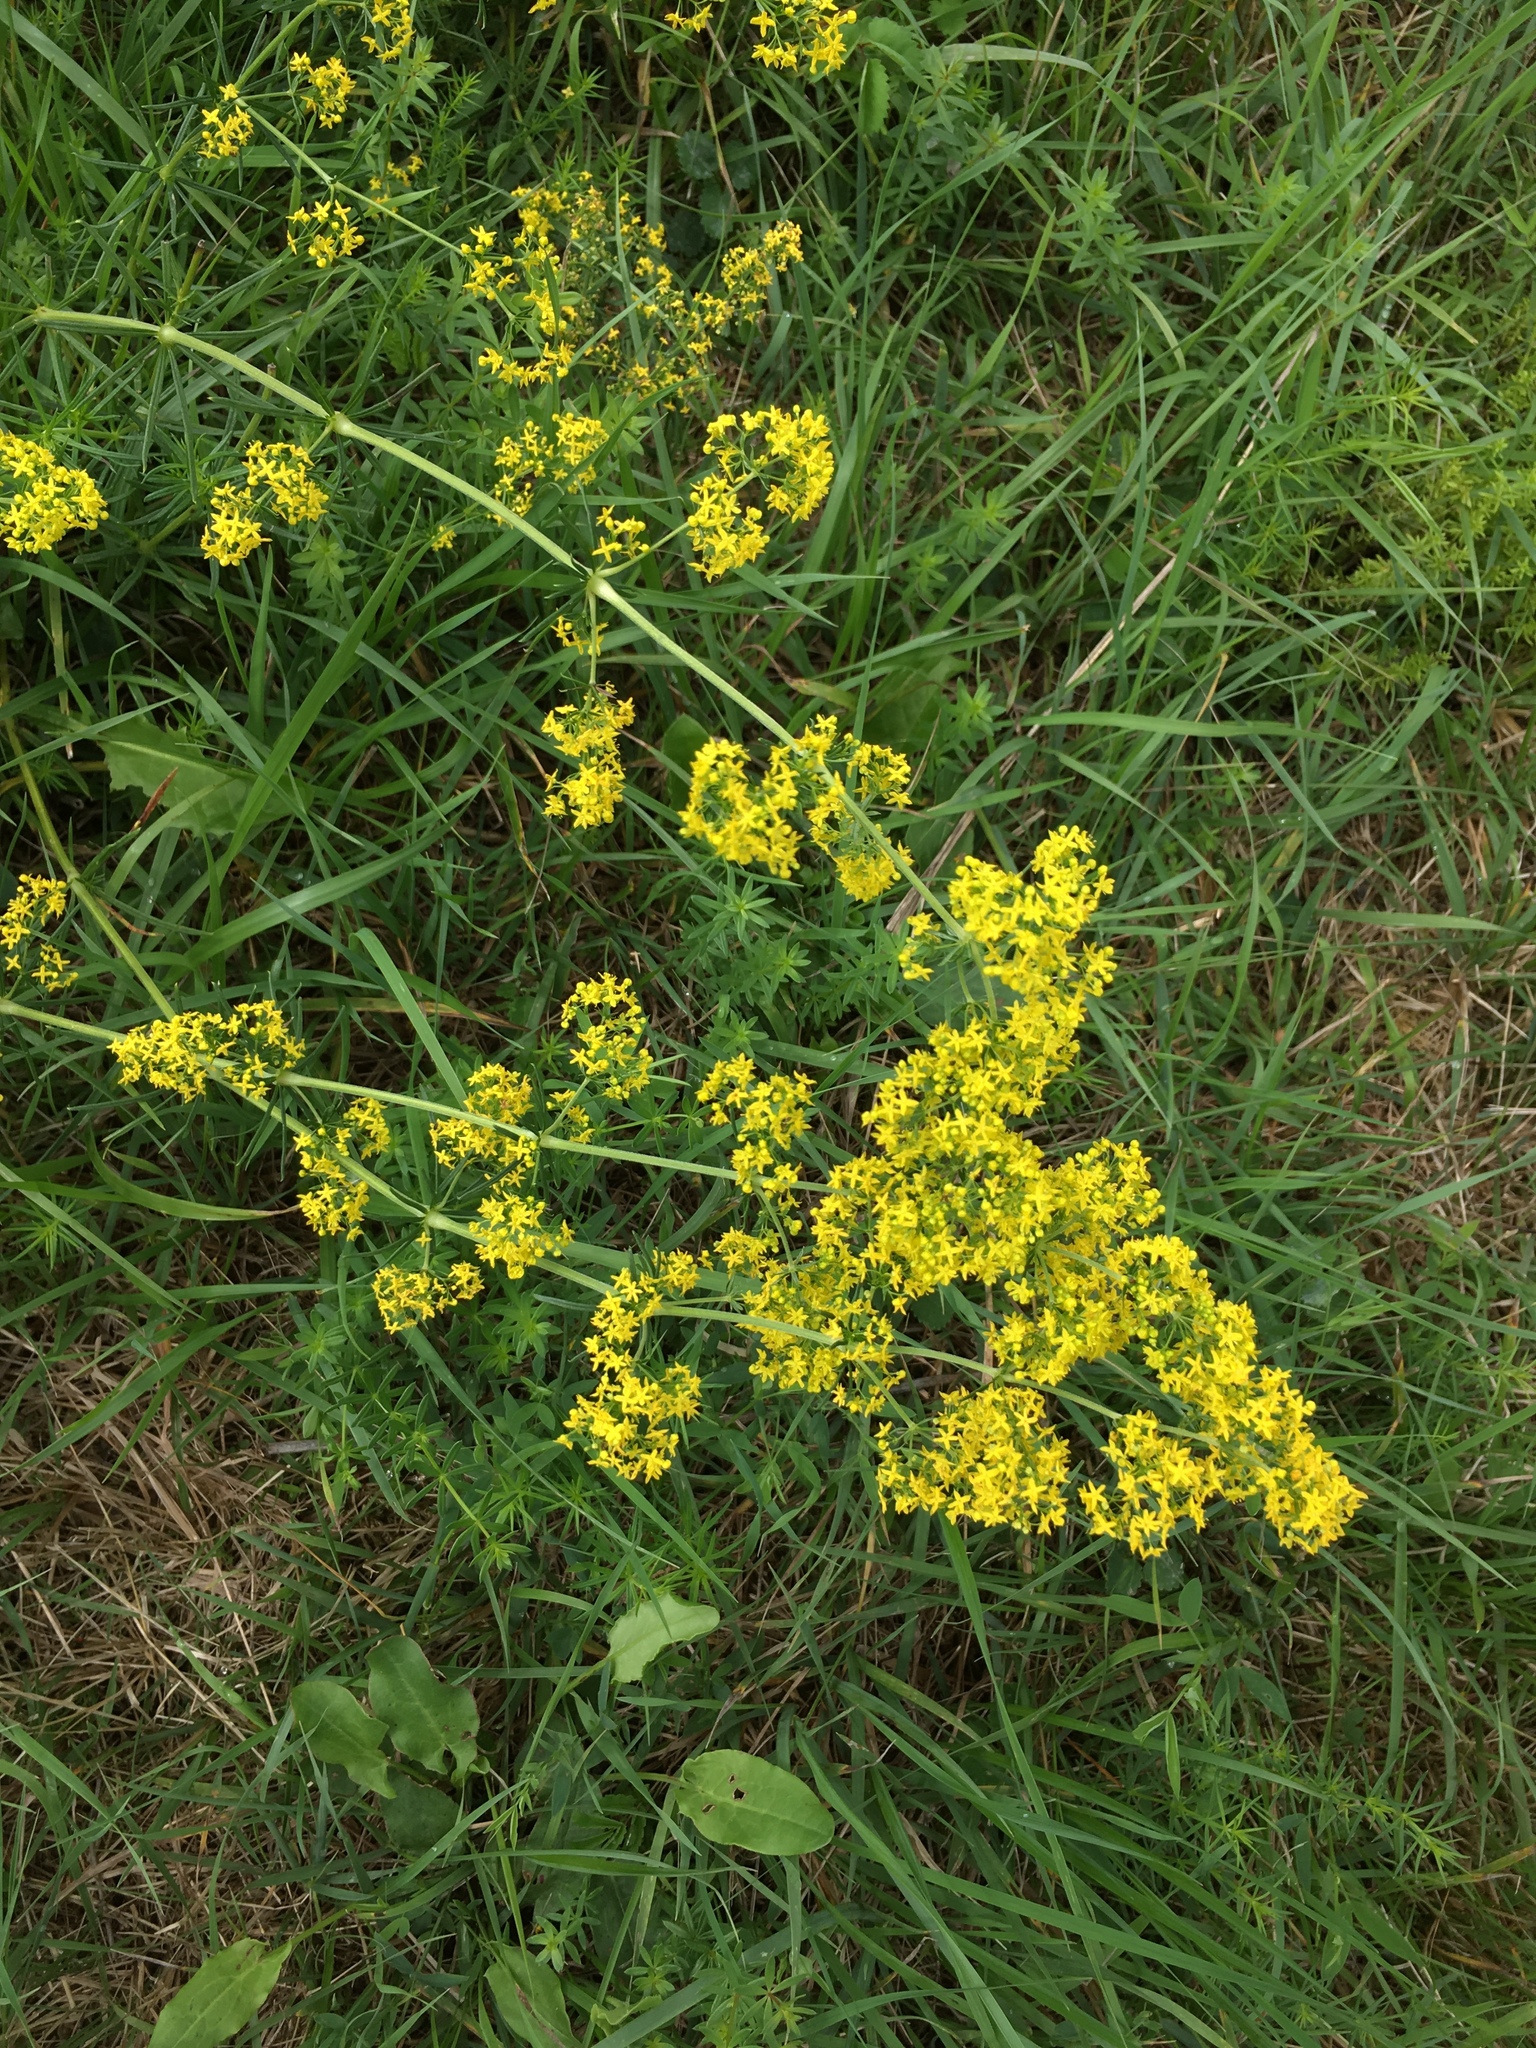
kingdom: Plantae
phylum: Tracheophyta
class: Magnoliopsida
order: Gentianales
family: Rubiaceae
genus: Galium
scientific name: Galium verum
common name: Lady's bedstraw
